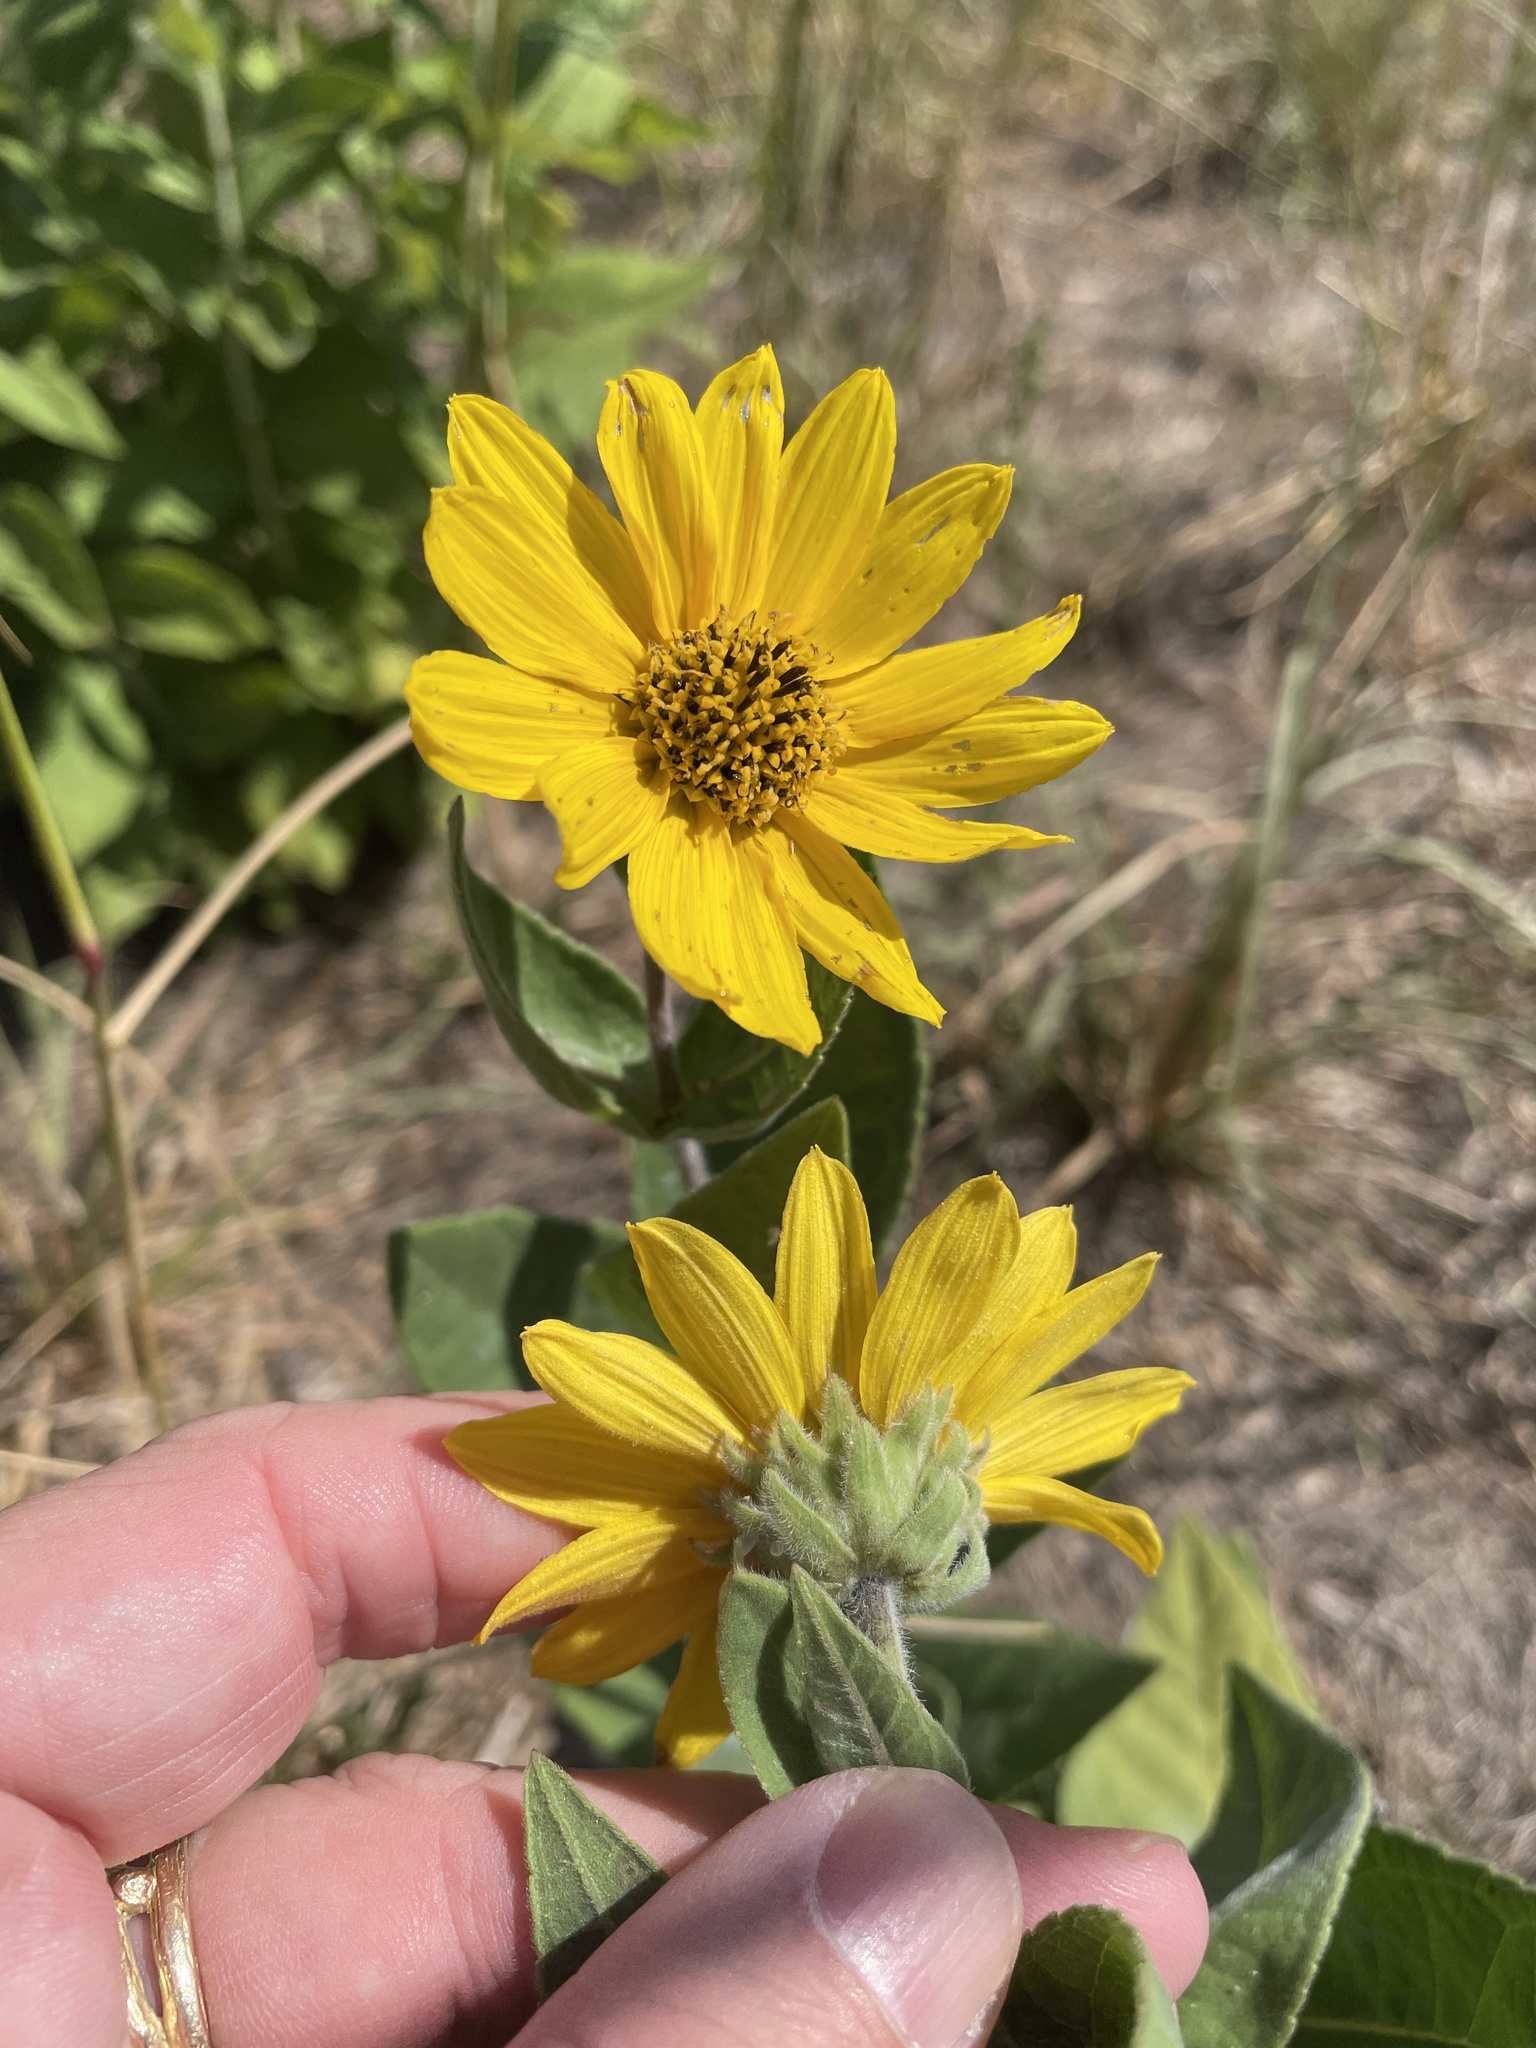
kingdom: Plantae
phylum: Tracheophyta
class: Magnoliopsida
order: Asterales
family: Asteraceae
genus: Helianthus
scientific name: Helianthus mollis
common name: Ashy sunflower
